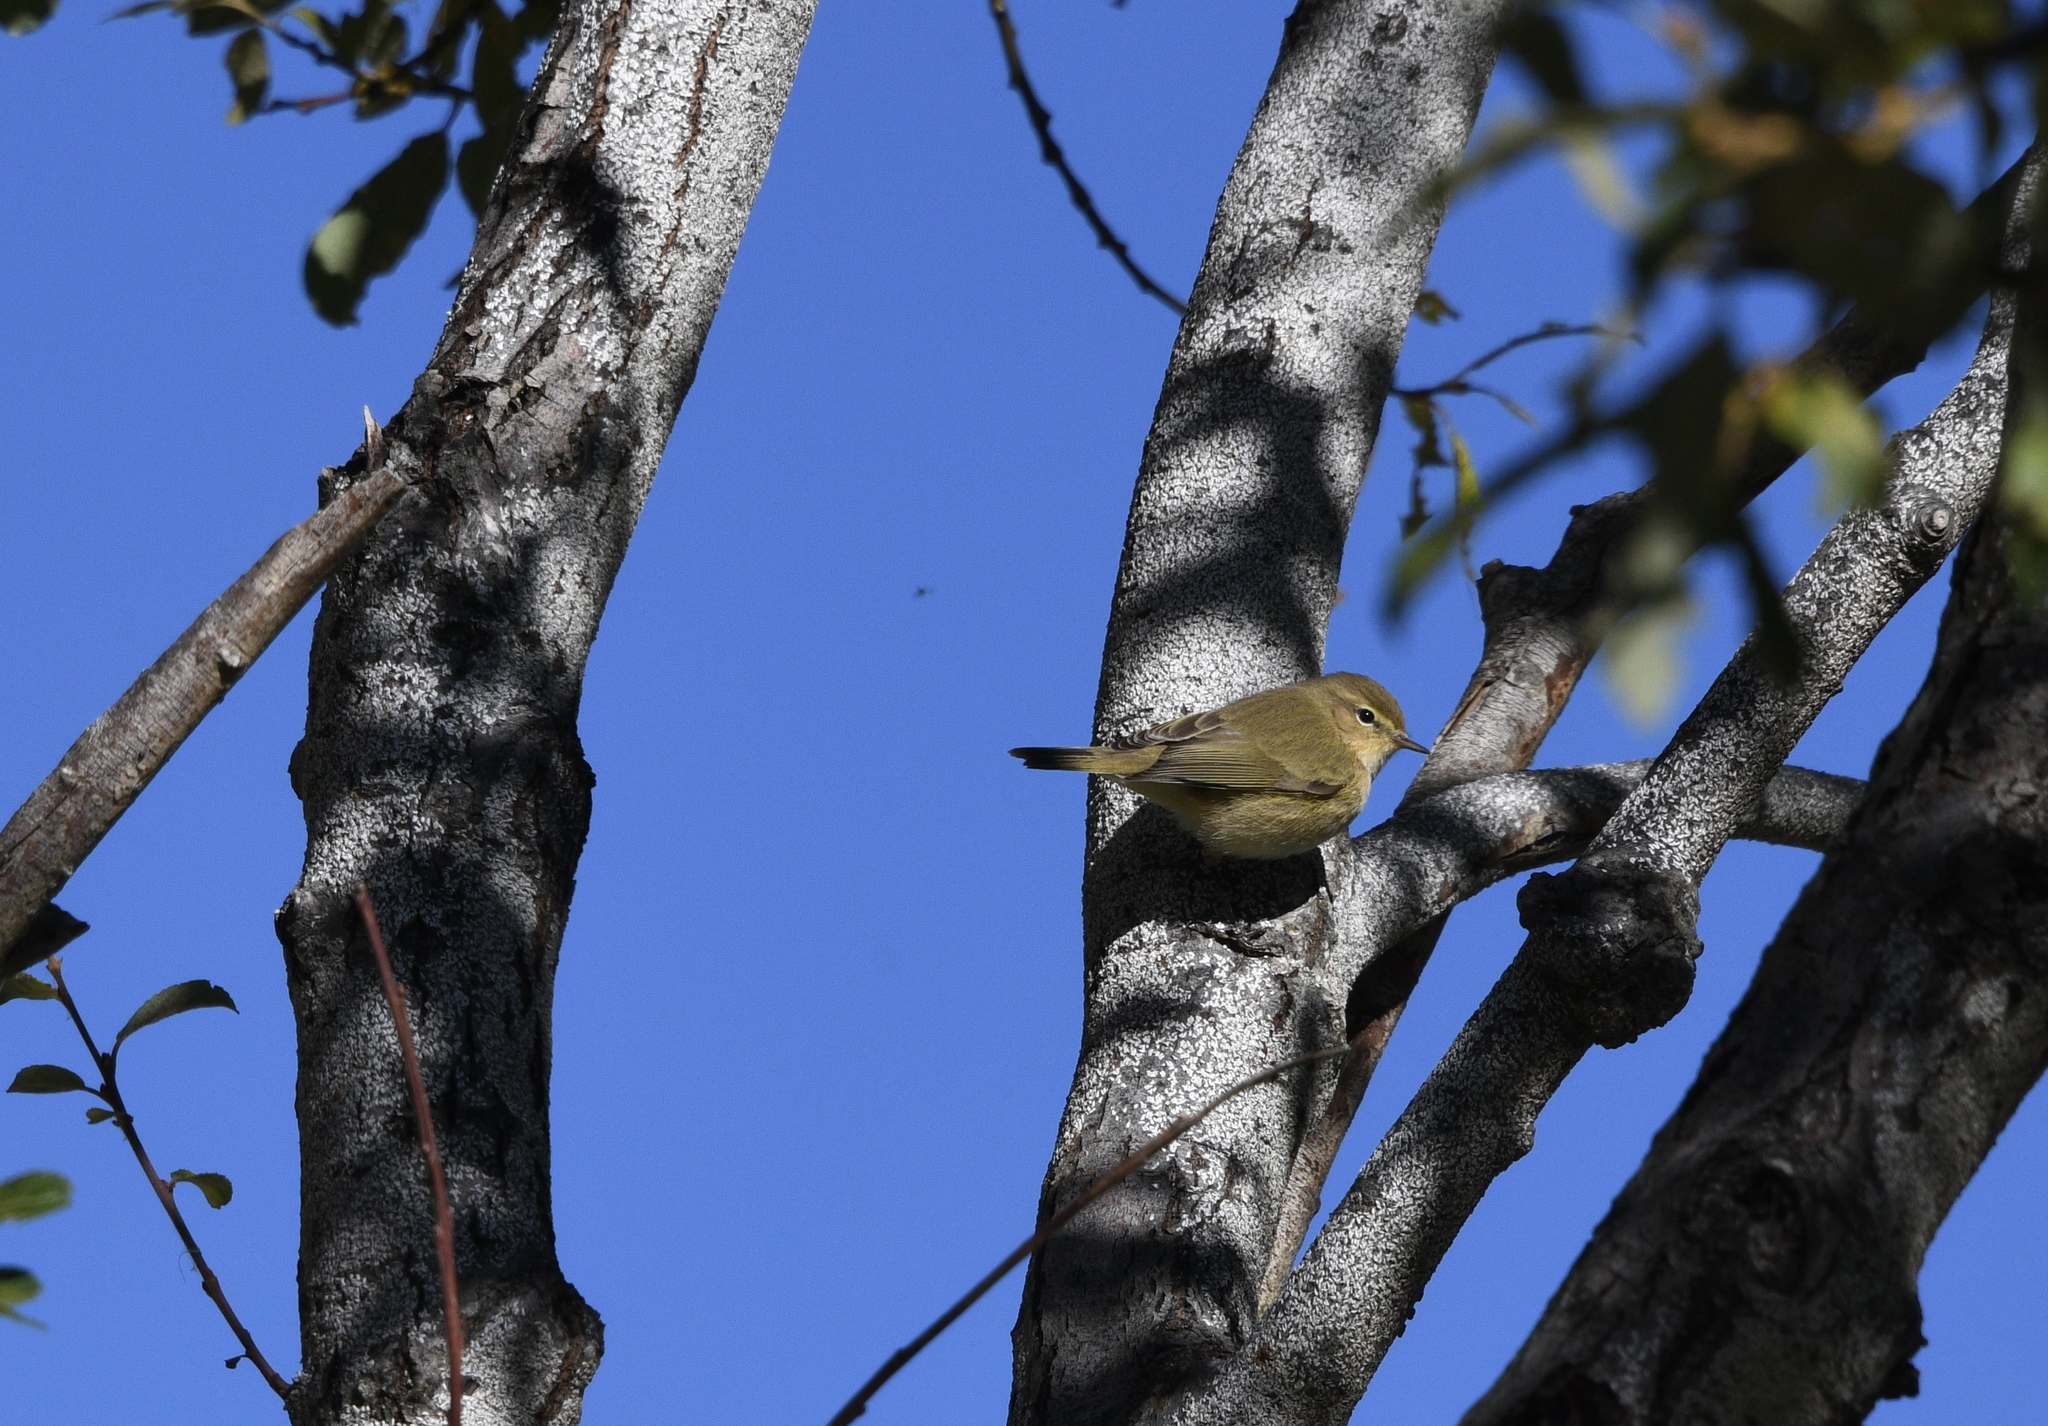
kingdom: Animalia
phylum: Chordata
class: Aves
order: Passeriformes
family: Phylloscopidae
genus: Phylloscopus
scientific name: Phylloscopus collybita
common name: Common chiffchaff
